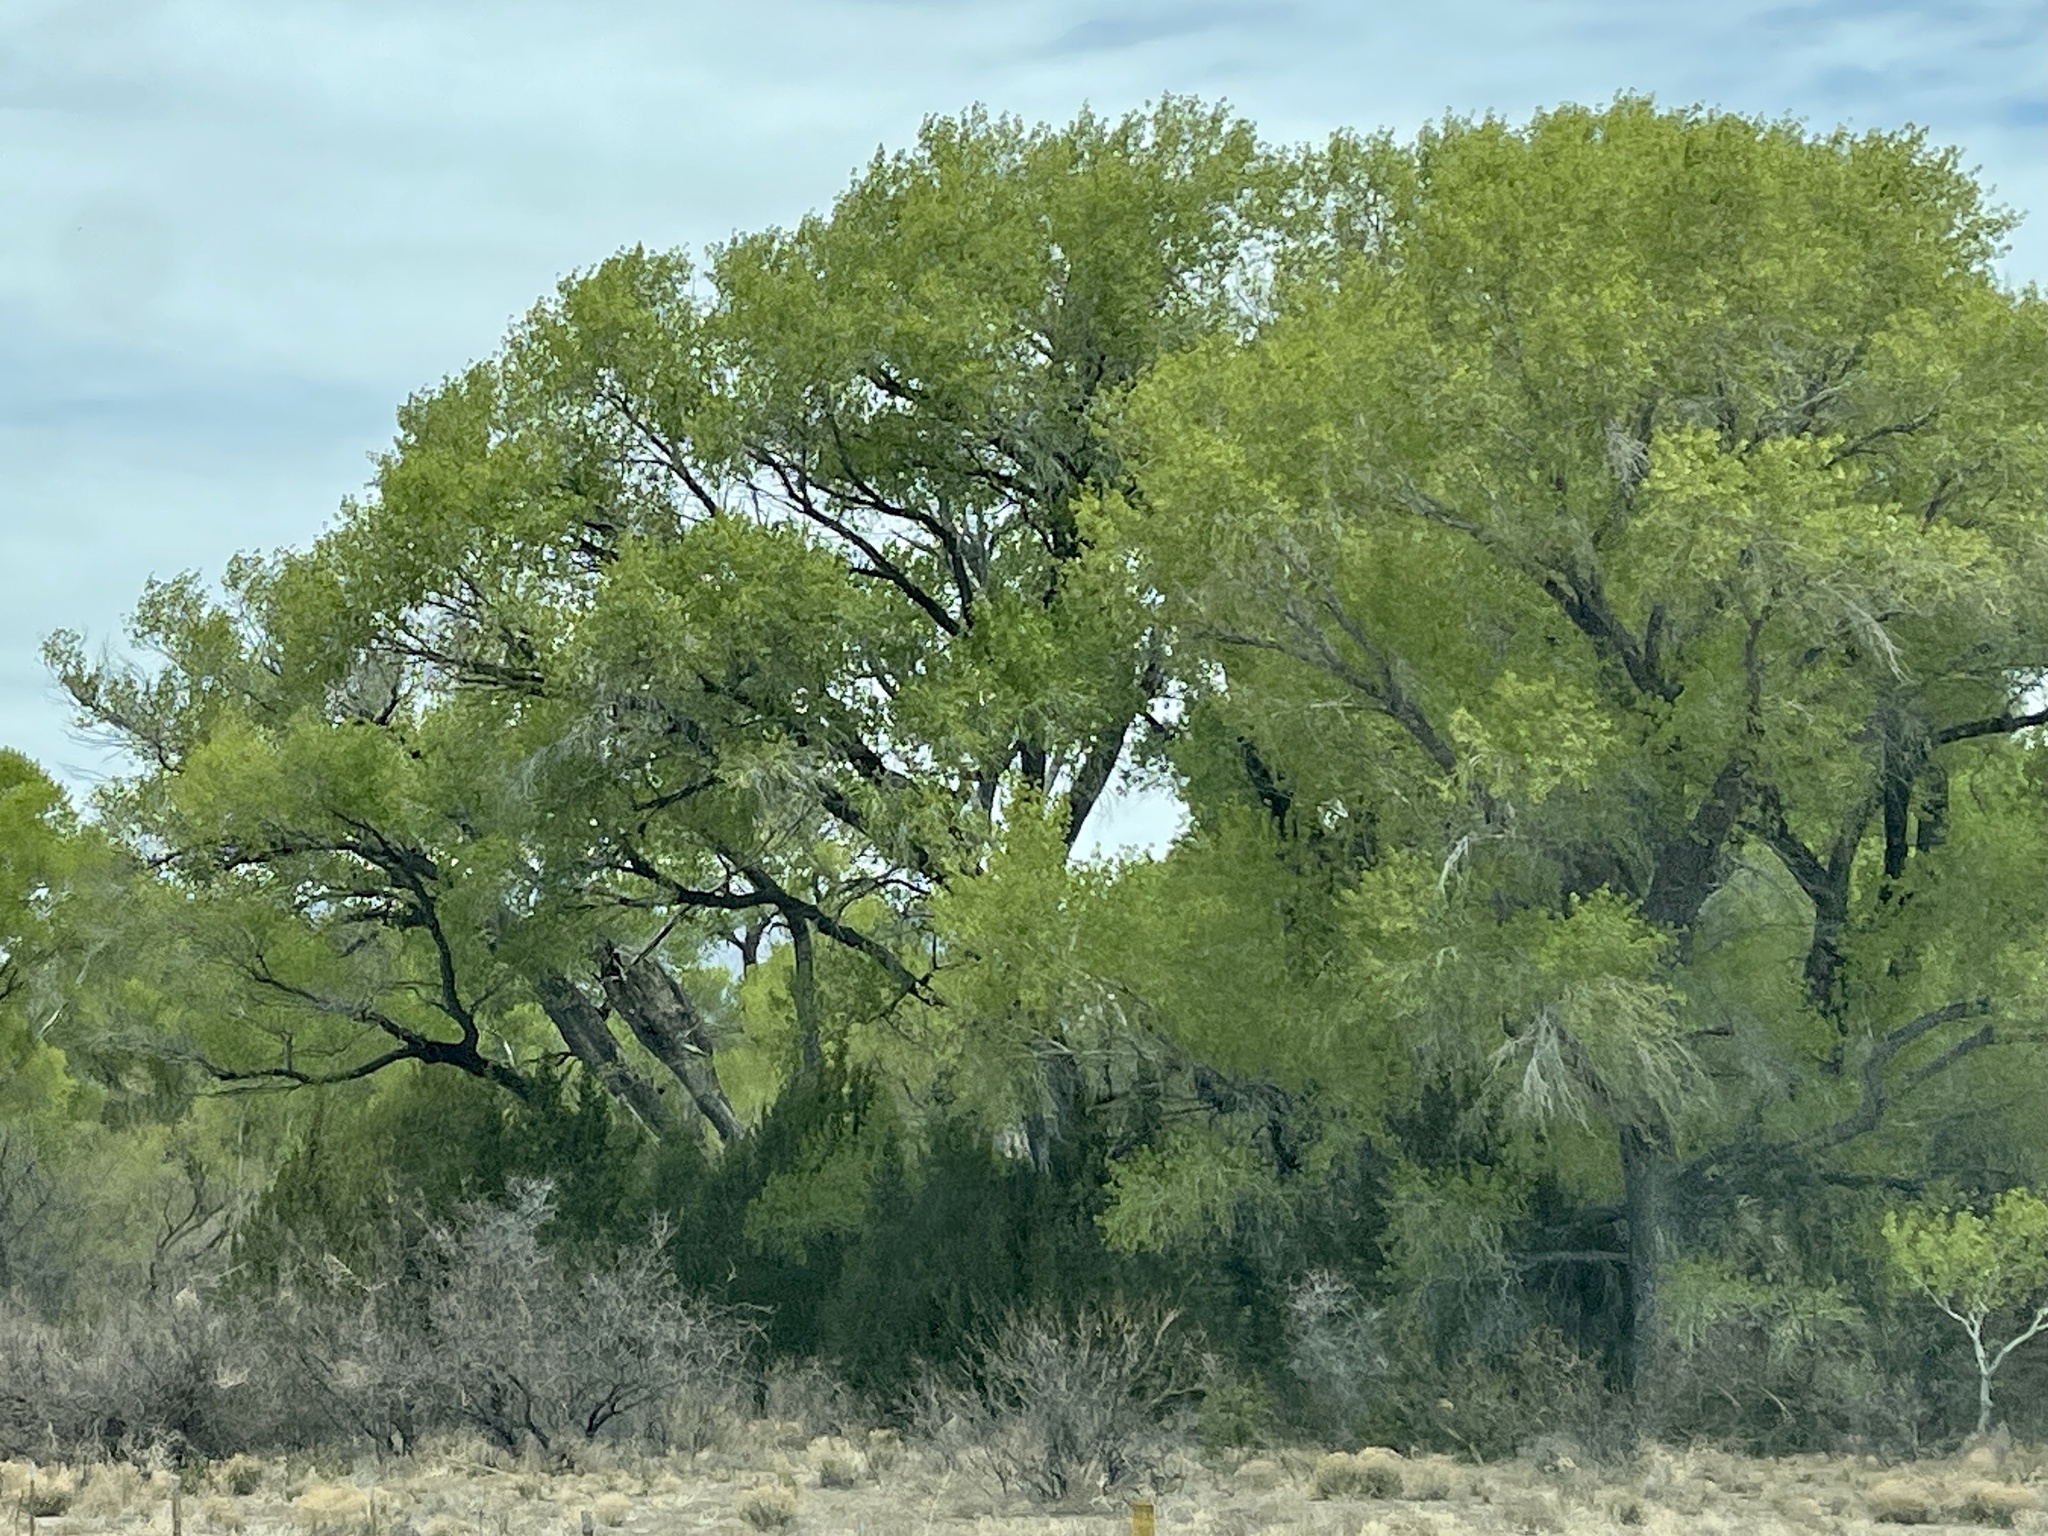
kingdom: Plantae
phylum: Tracheophyta
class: Magnoliopsida
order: Malpighiales
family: Salicaceae
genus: Populus
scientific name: Populus fremontii
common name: Fremont's cottonwood
